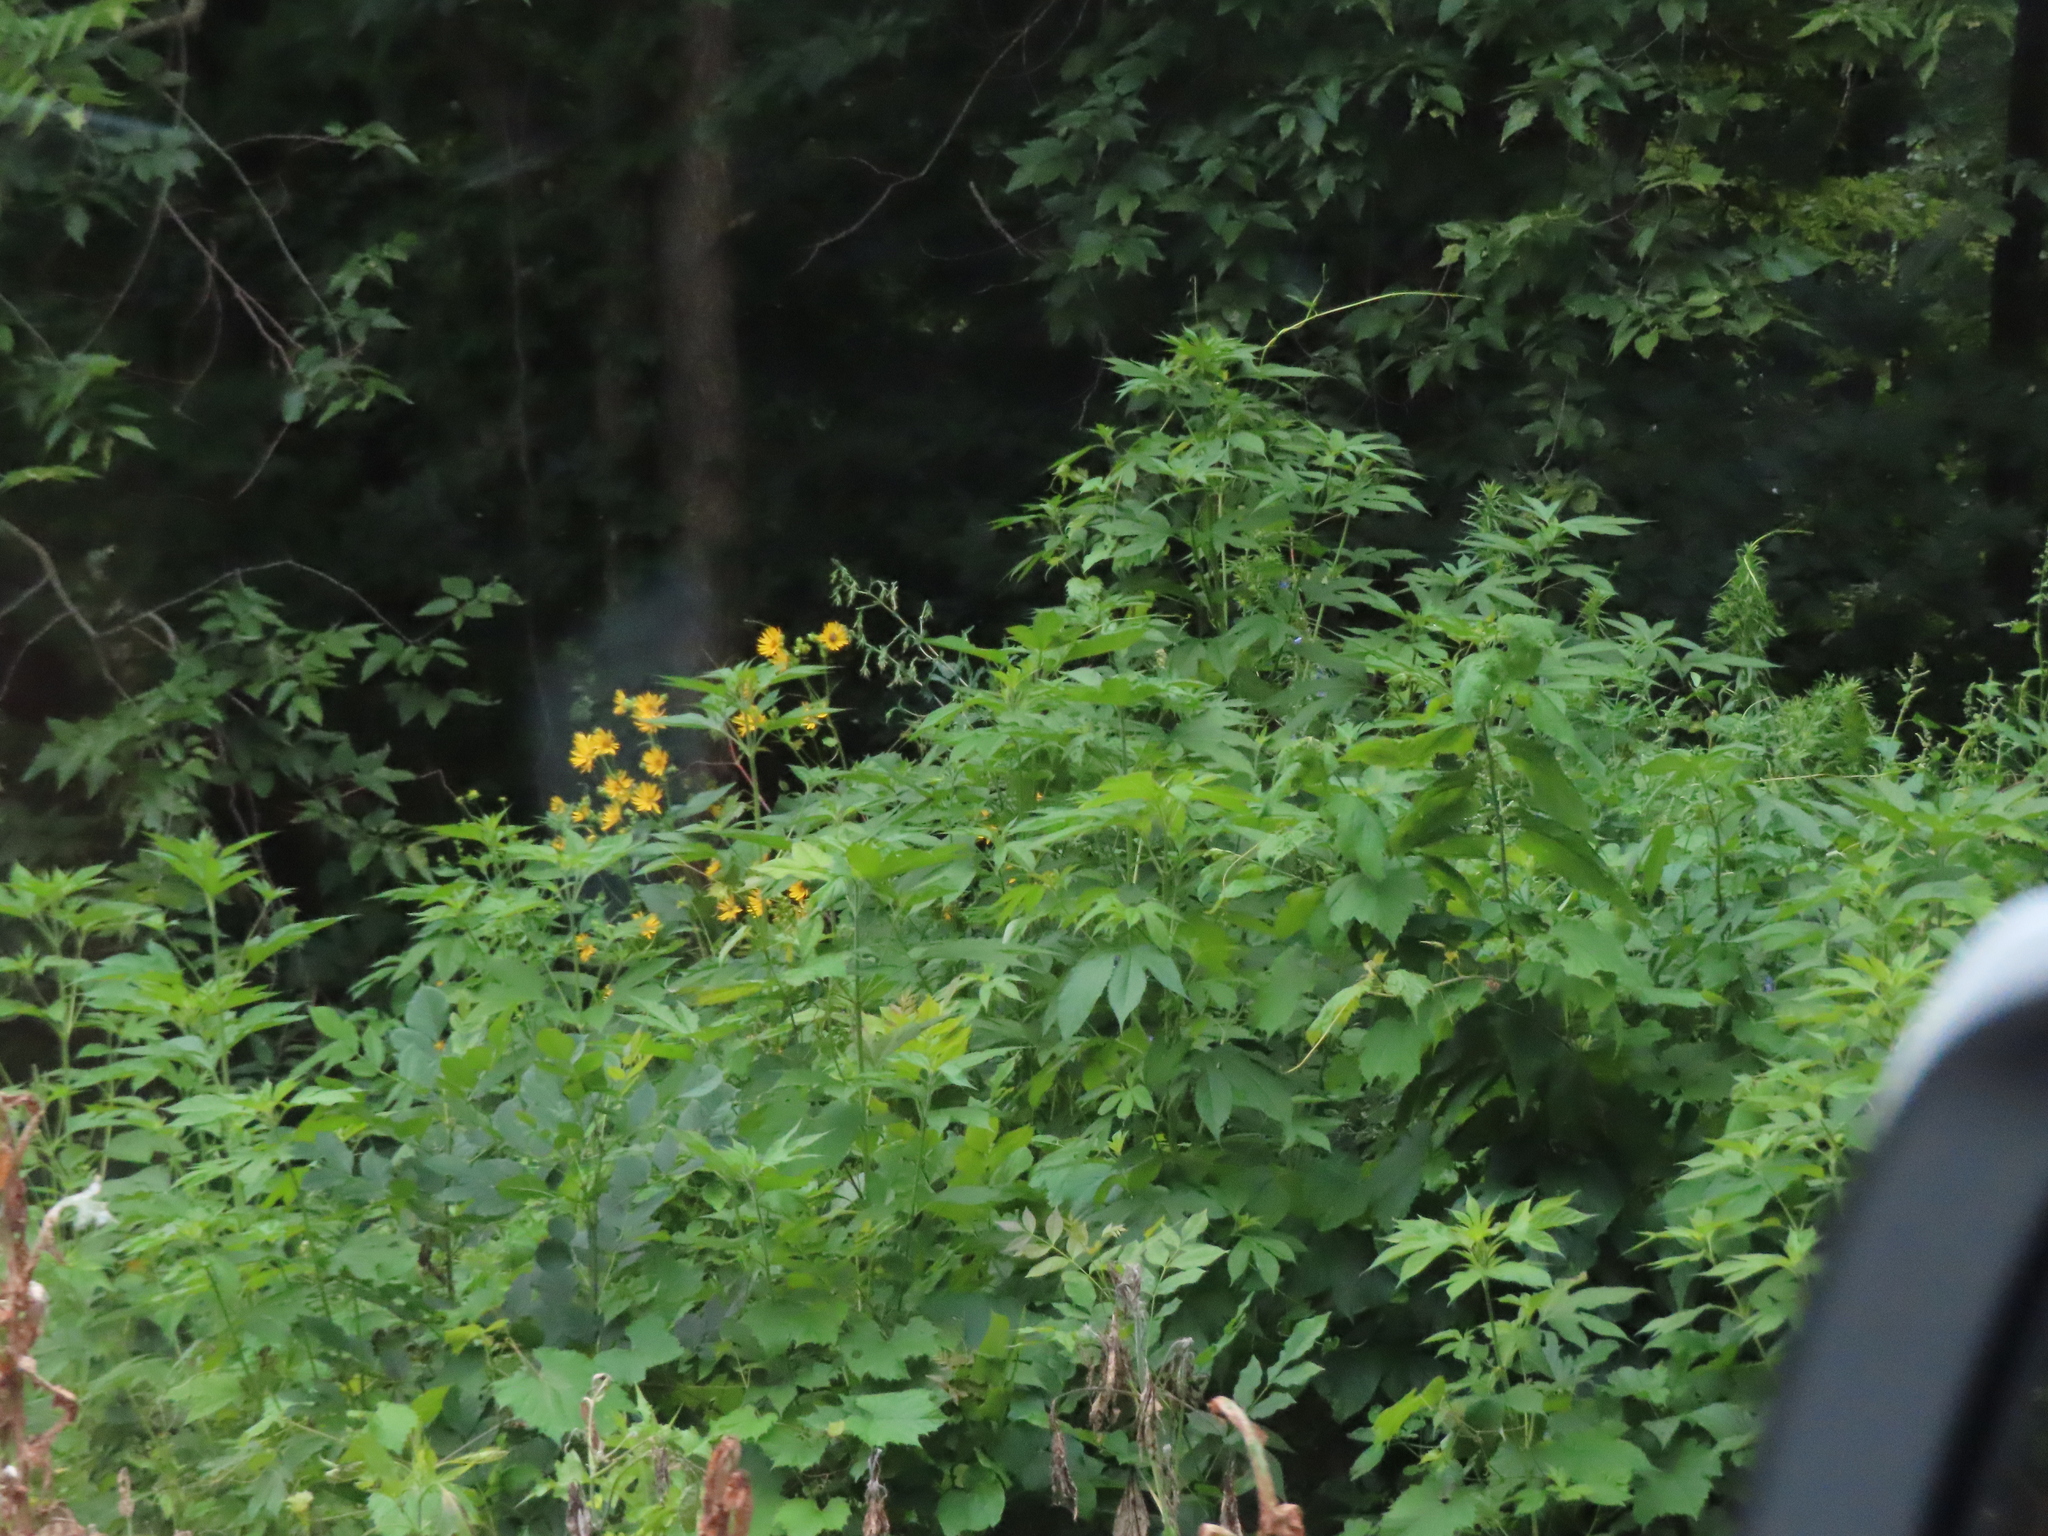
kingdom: Plantae
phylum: Tracheophyta
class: Magnoliopsida
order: Asterales
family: Asteraceae
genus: Ambrosia
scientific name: Ambrosia trifida
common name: Giant ragweed
